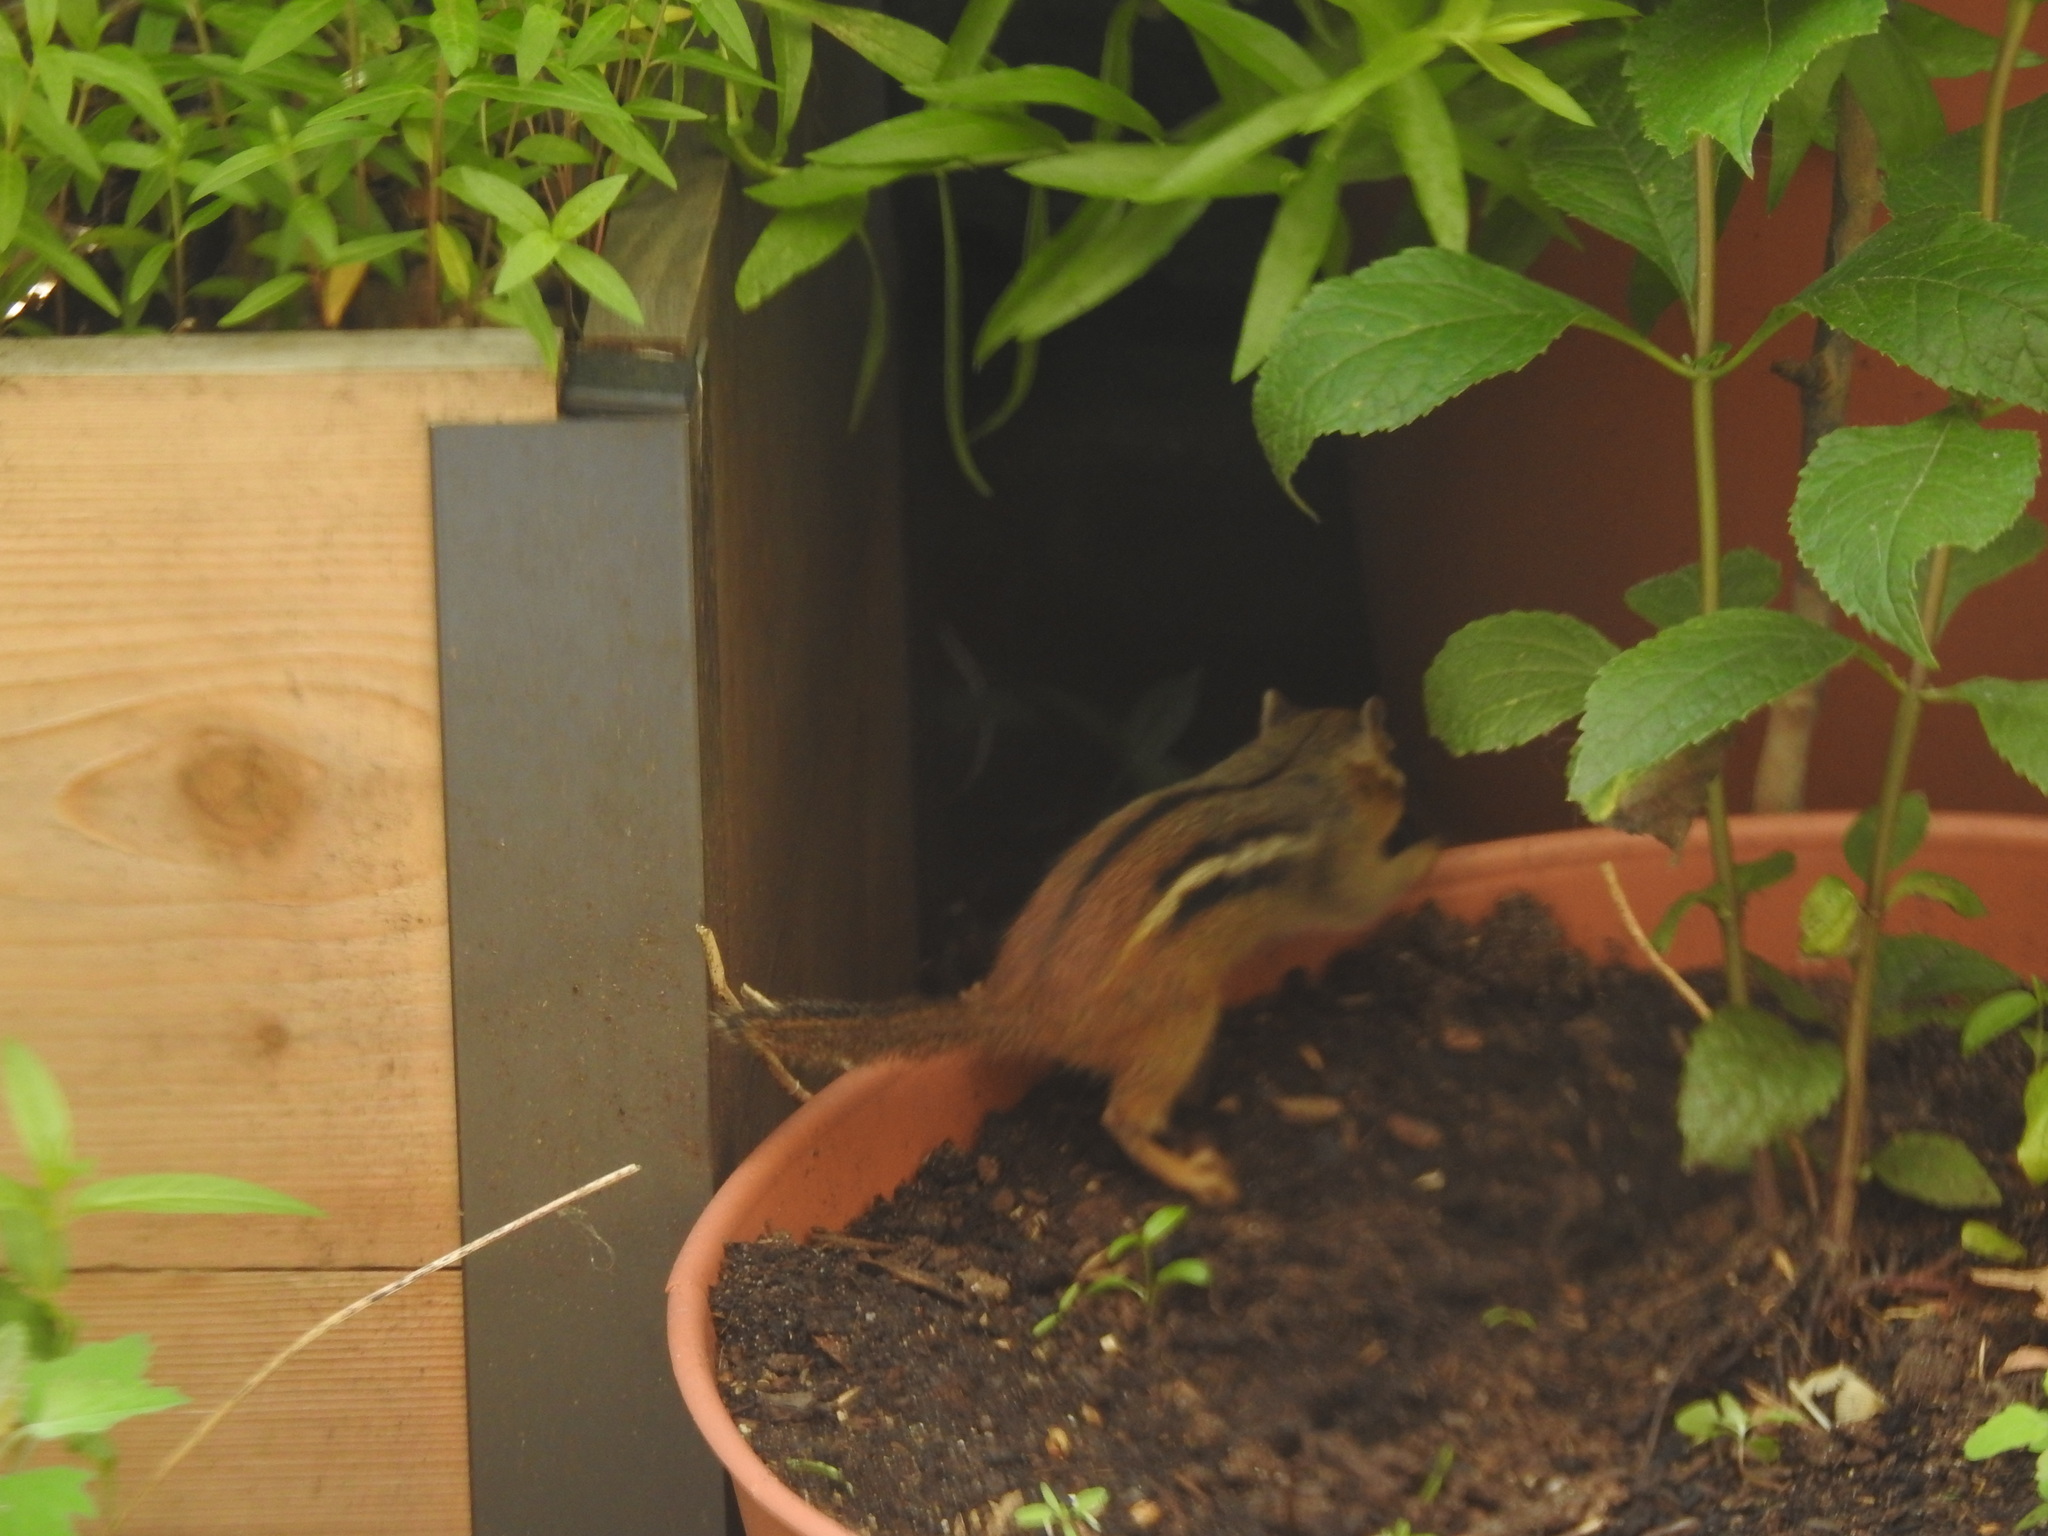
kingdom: Animalia
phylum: Chordata
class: Mammalia
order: Rodentia
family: Sciuridae
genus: Tamias
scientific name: Tamias striatus
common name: Eastern chipmunk
